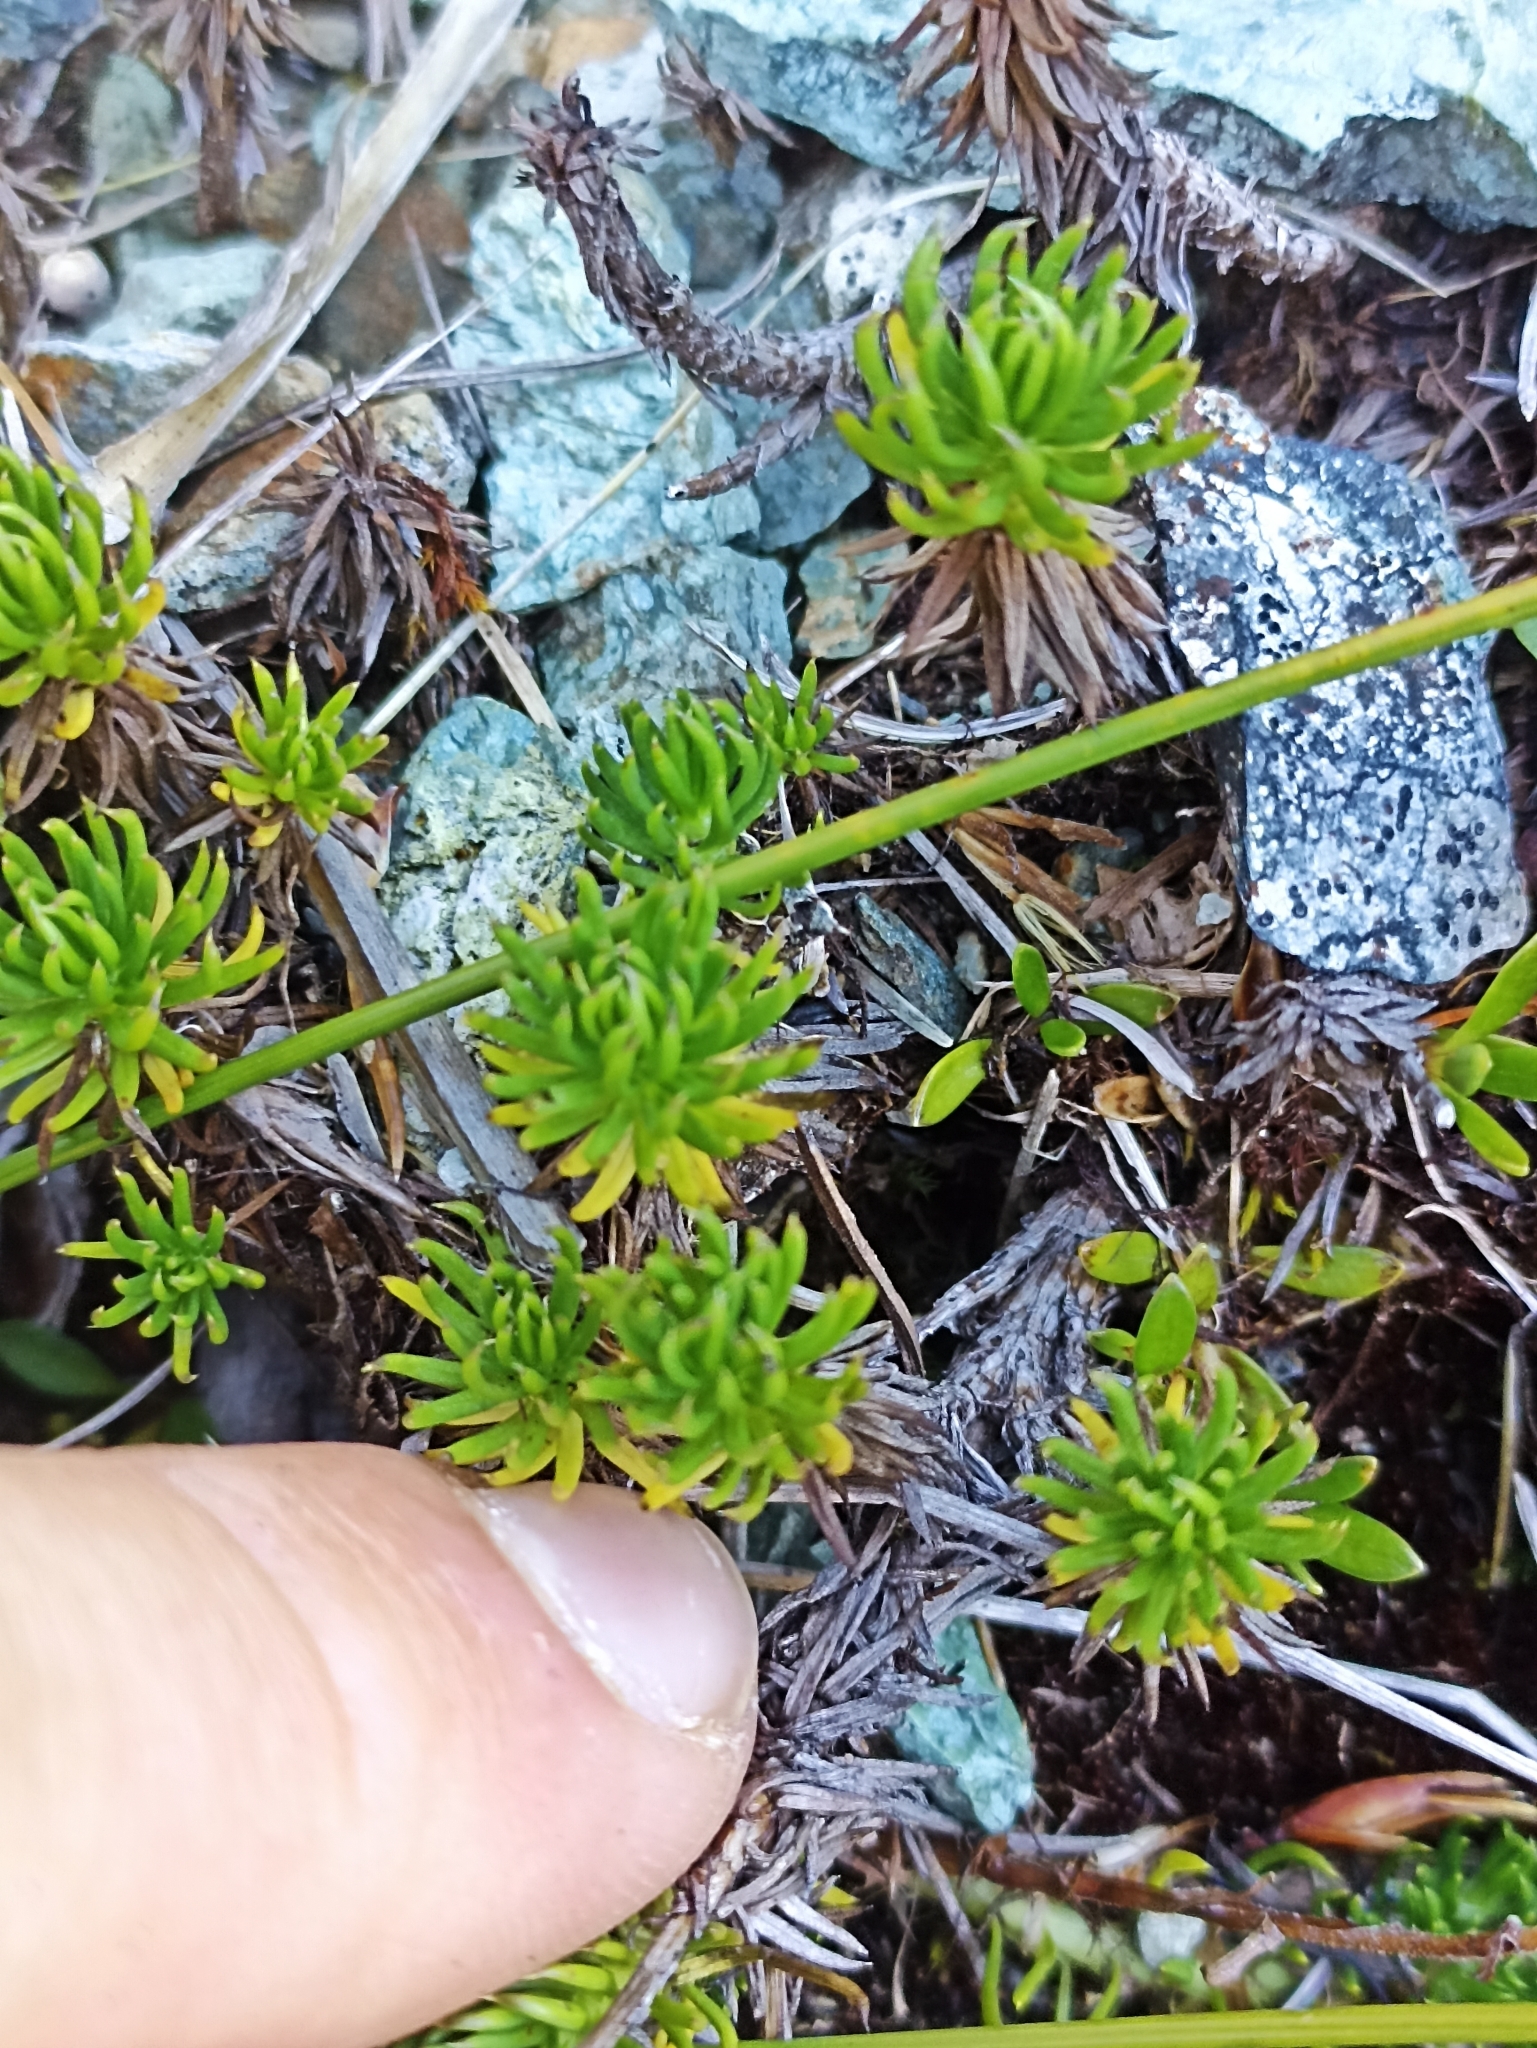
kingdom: Plantae
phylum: Tracheophyta
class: Magnoliopsida
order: Asterales
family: Asteraceae
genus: Celmisia
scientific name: Celmisia lateralis
